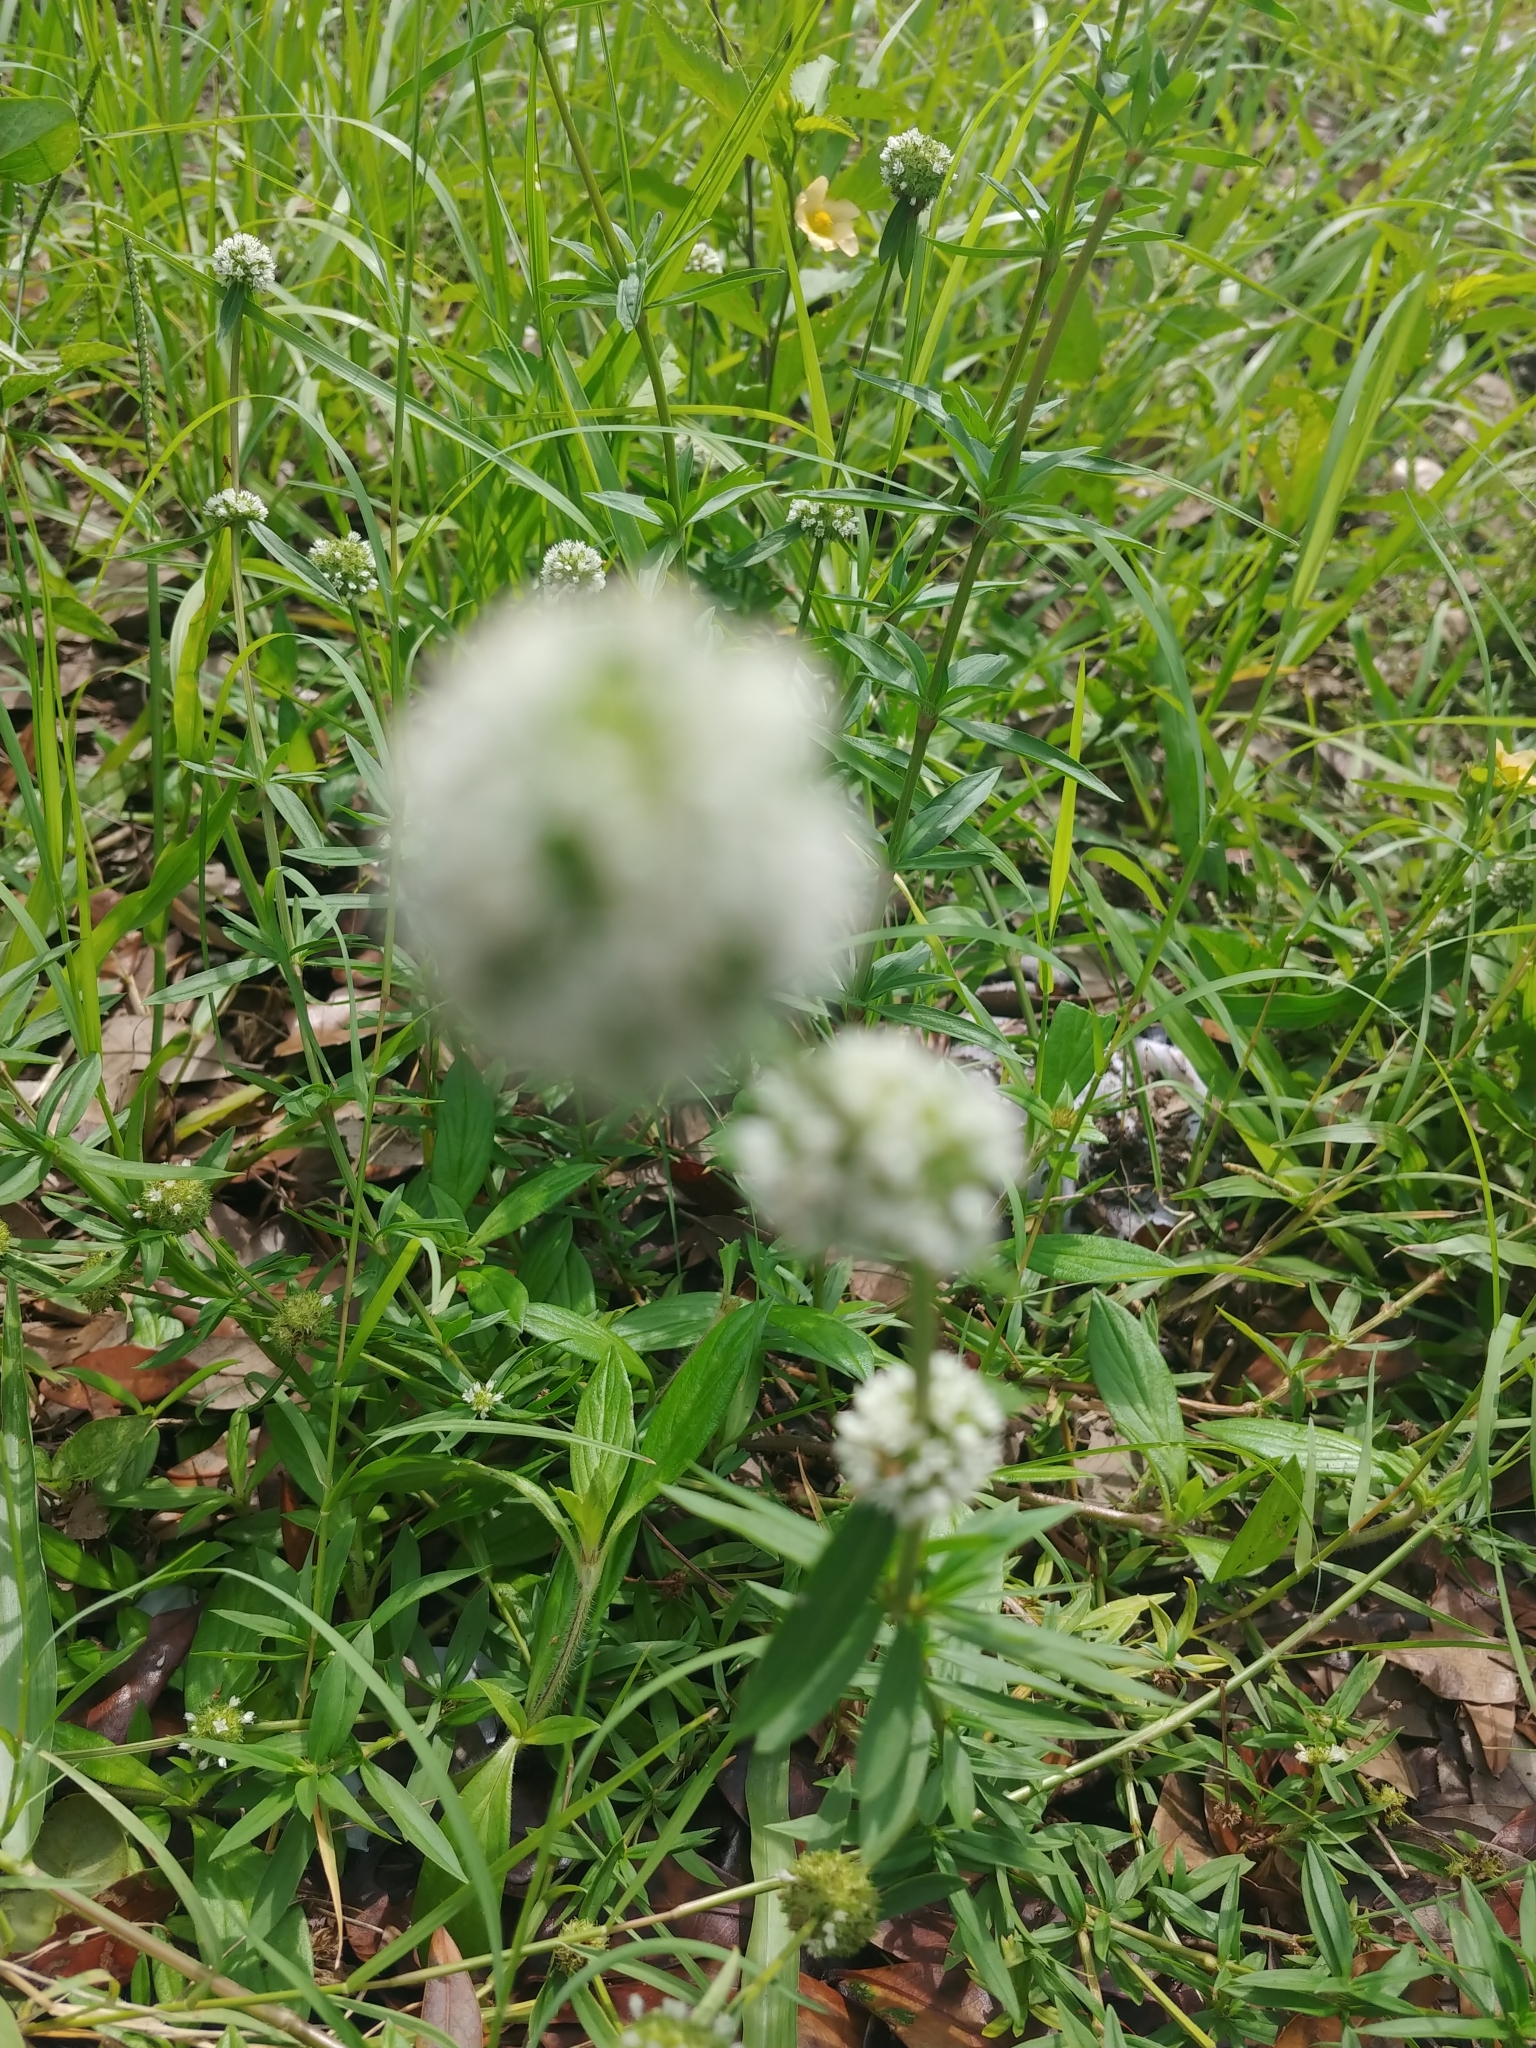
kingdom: Plantae
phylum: Tracheophyta
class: Magnoliopsida
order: Gentianales
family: Rubiaceae
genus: Spermacoce
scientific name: Spermacoce verticillata
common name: Shrubby false buttonweed
